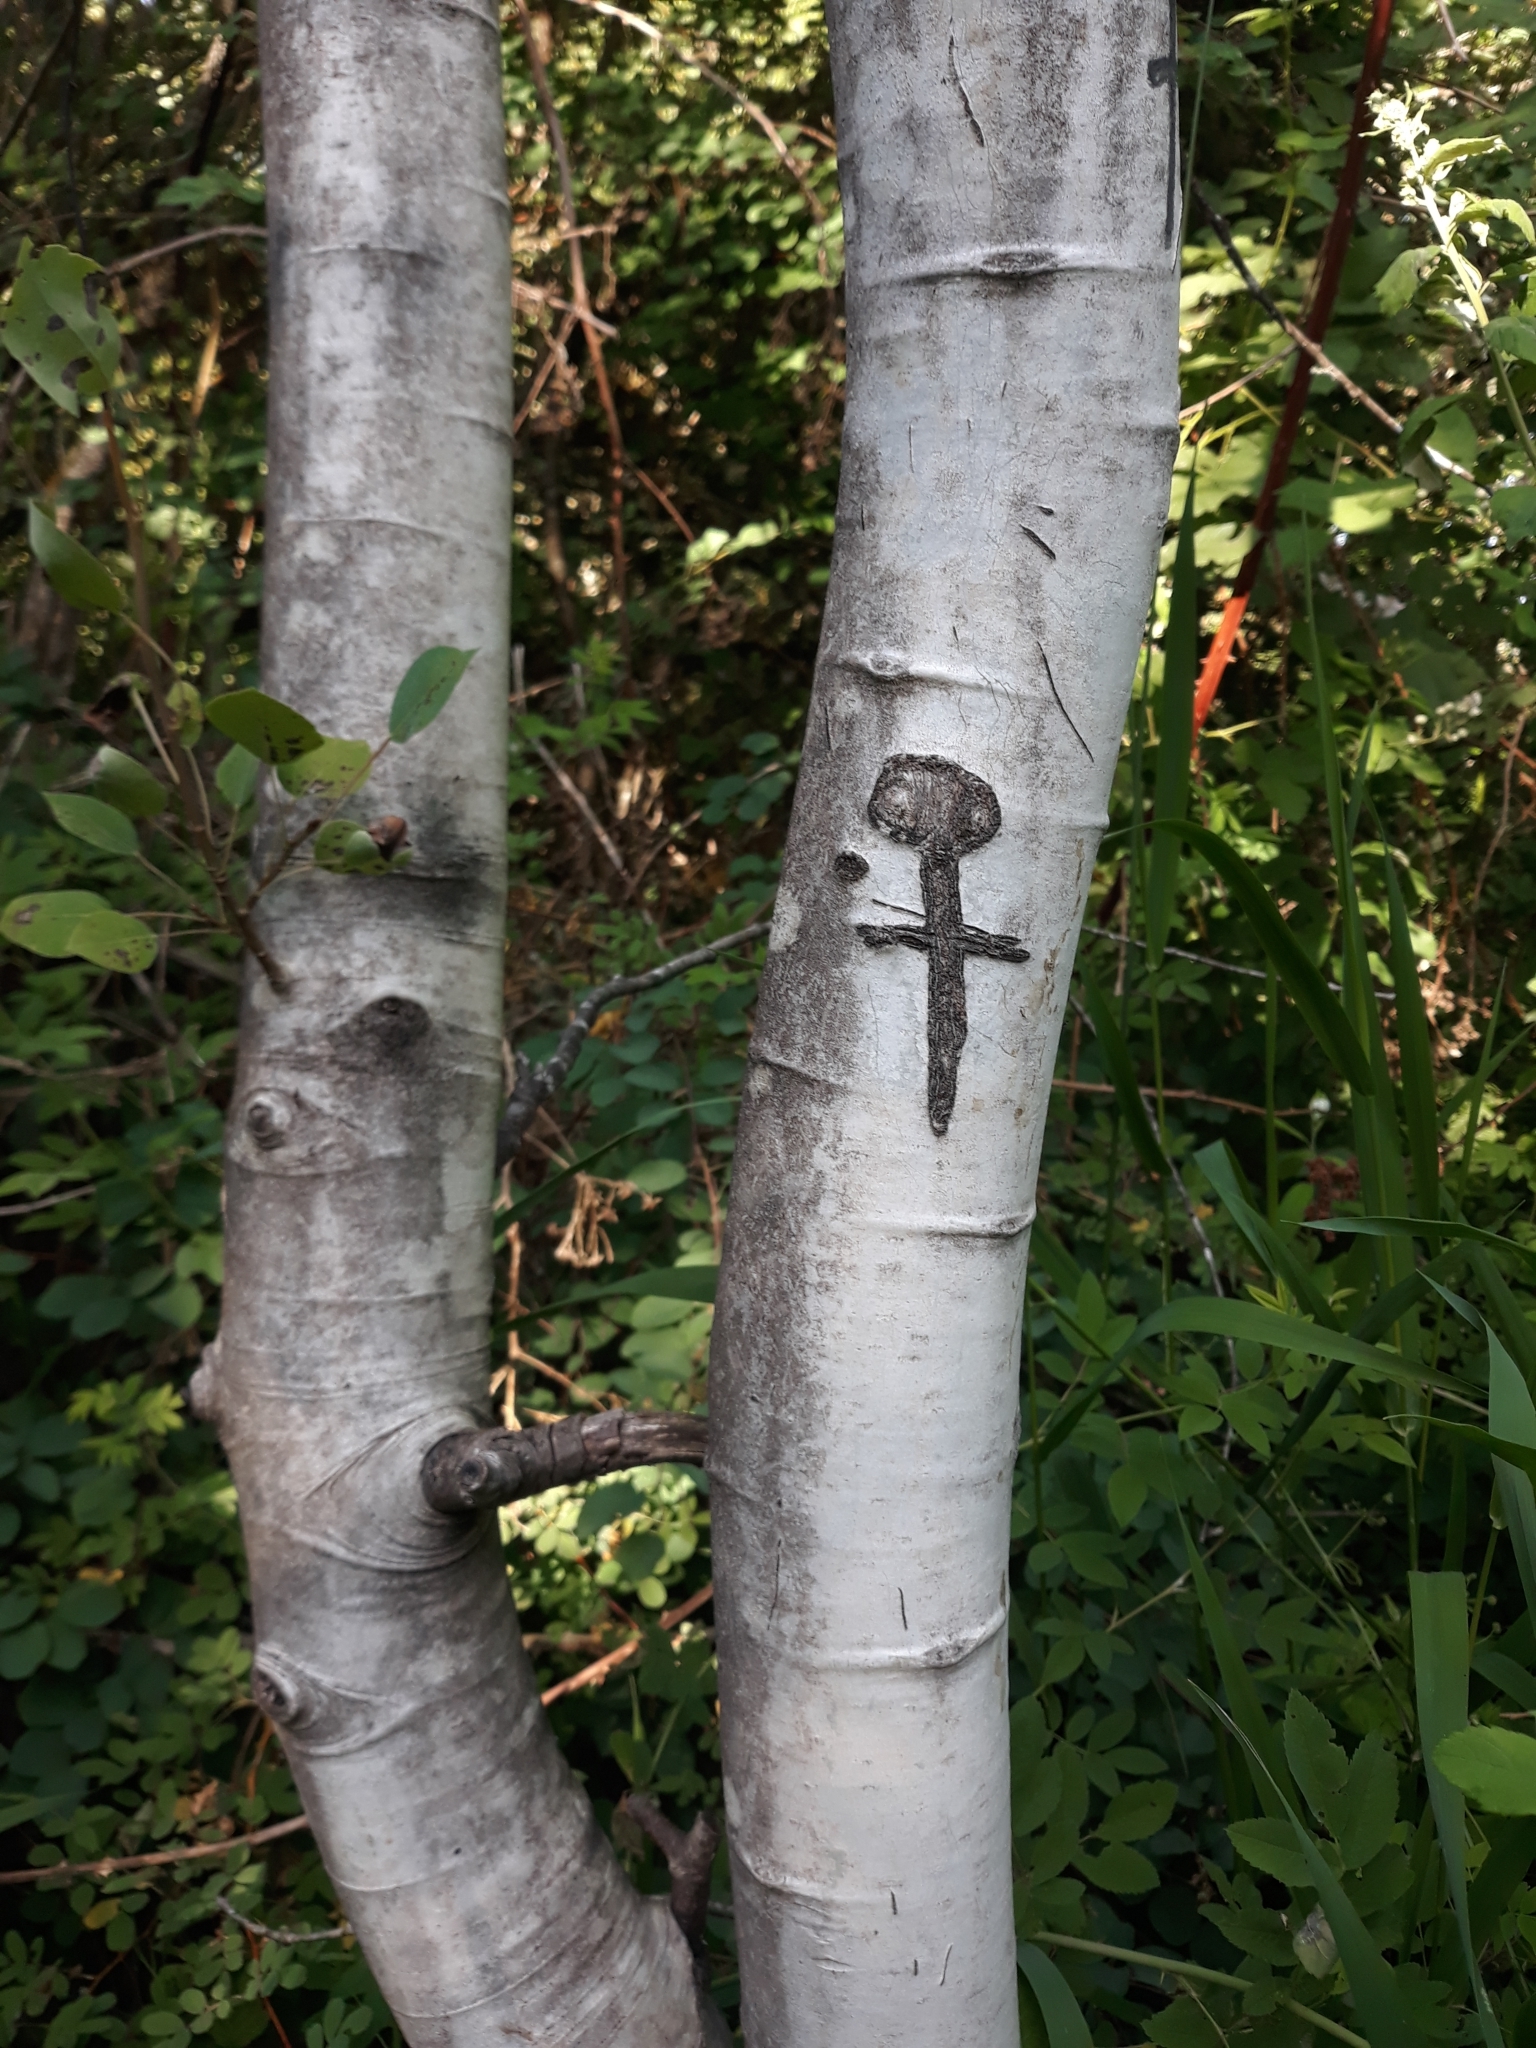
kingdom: Plantae
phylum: Tracheophyta
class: Magnoliopsida
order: Malpighiales
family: Salicaceae
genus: Populus
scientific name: Populus tremuloides
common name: Quaking aspen
